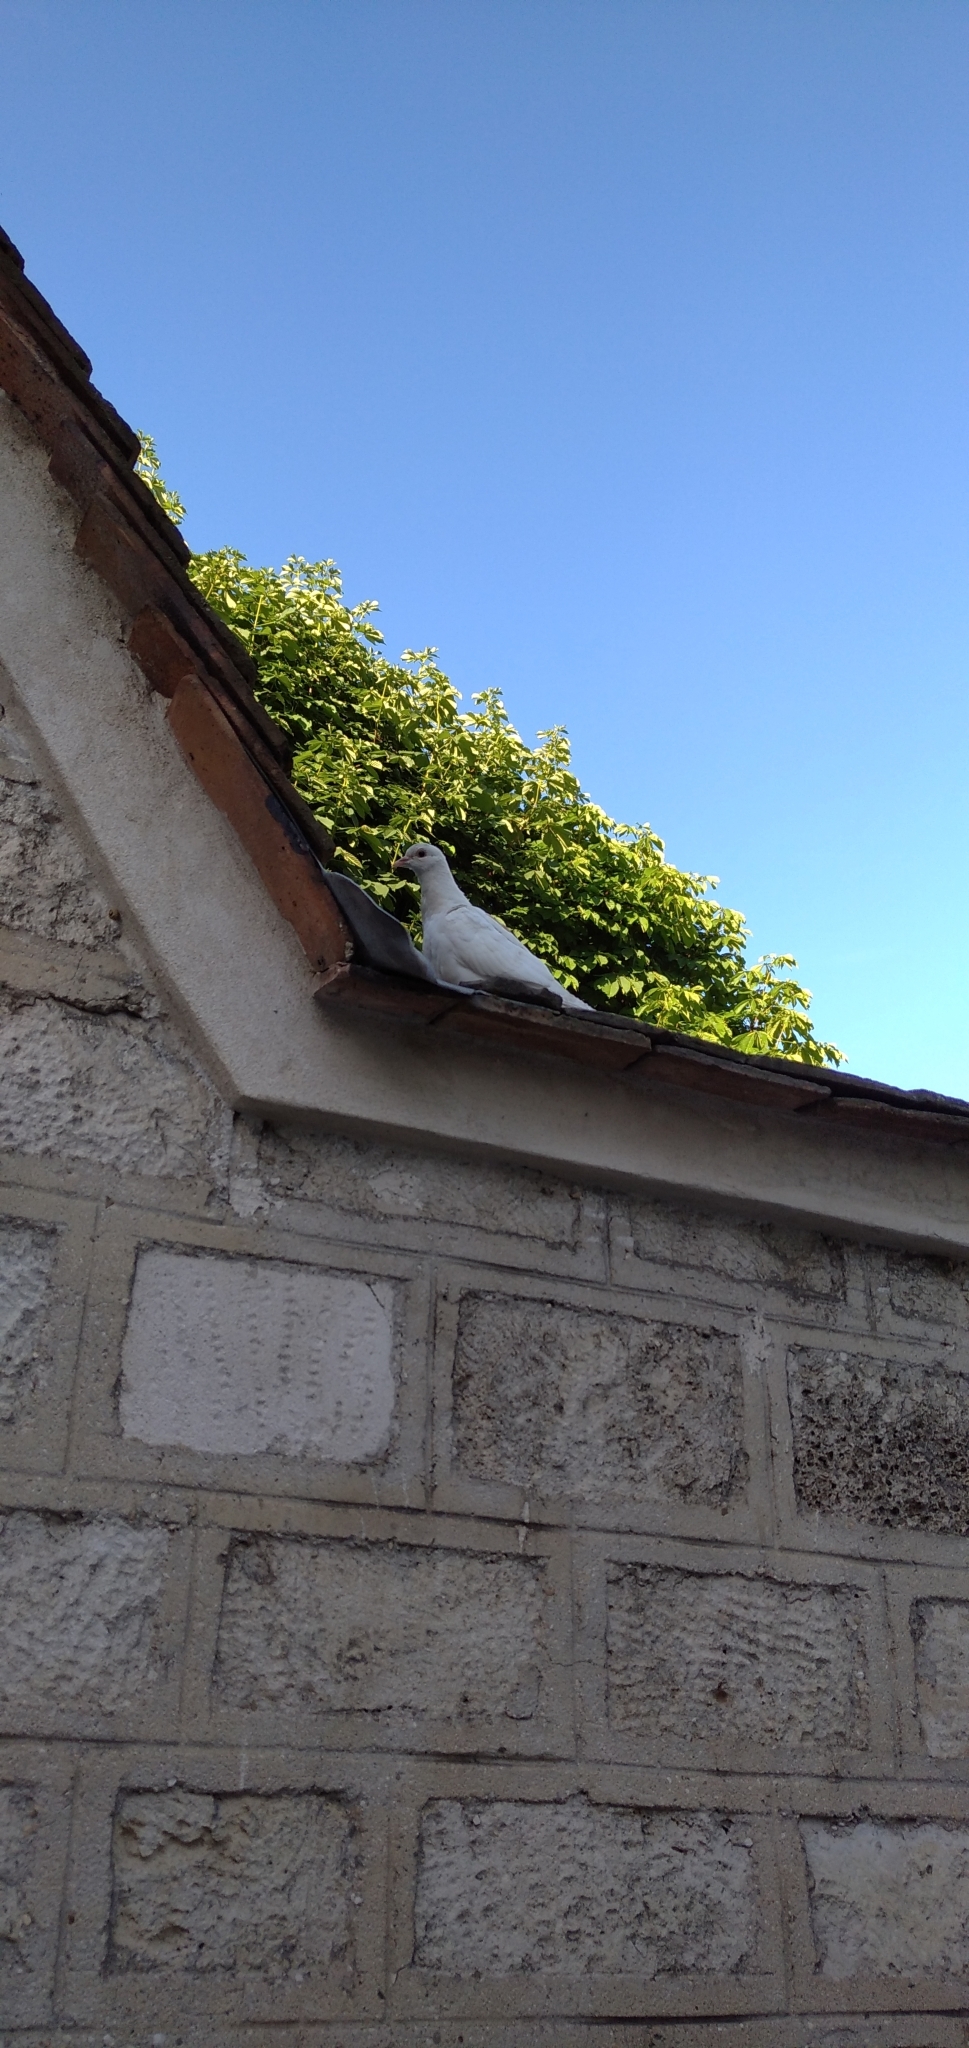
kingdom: Animalia
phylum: Chordata
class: Aves
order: Columbiformes
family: Columbidae
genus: Columba
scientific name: Columba livia
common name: Rock pigeon
